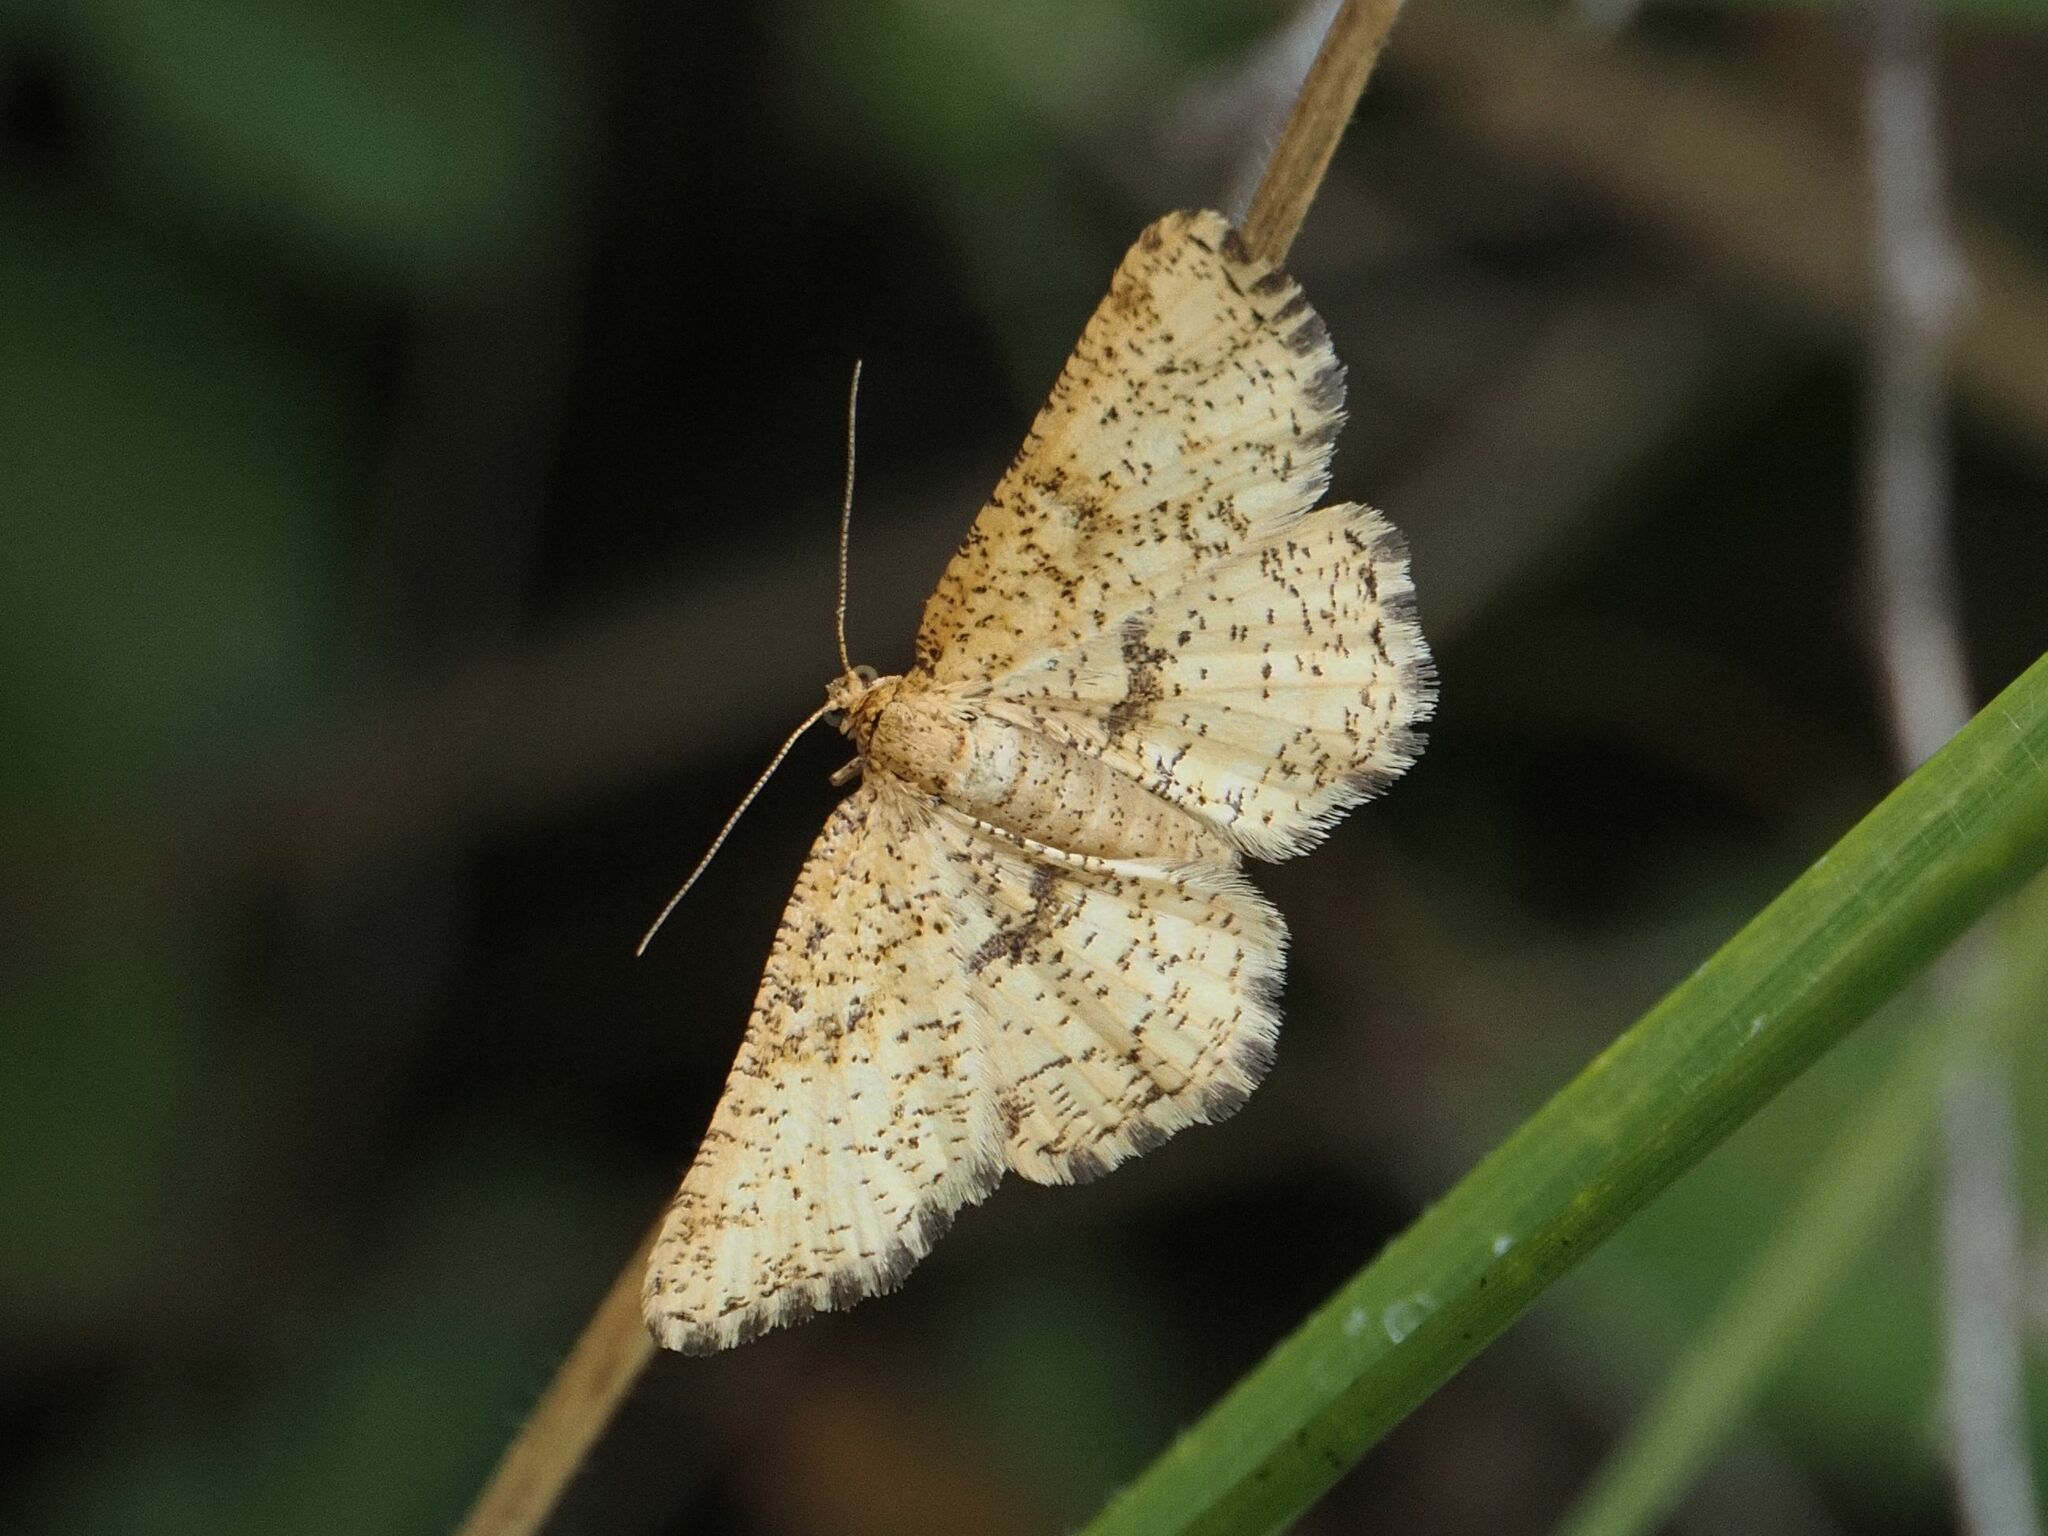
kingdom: Animalia
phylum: Arthropoda
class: Insecta
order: Lepidoptera
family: Geometridae
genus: Heliomata
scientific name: Heliomata glarearia
